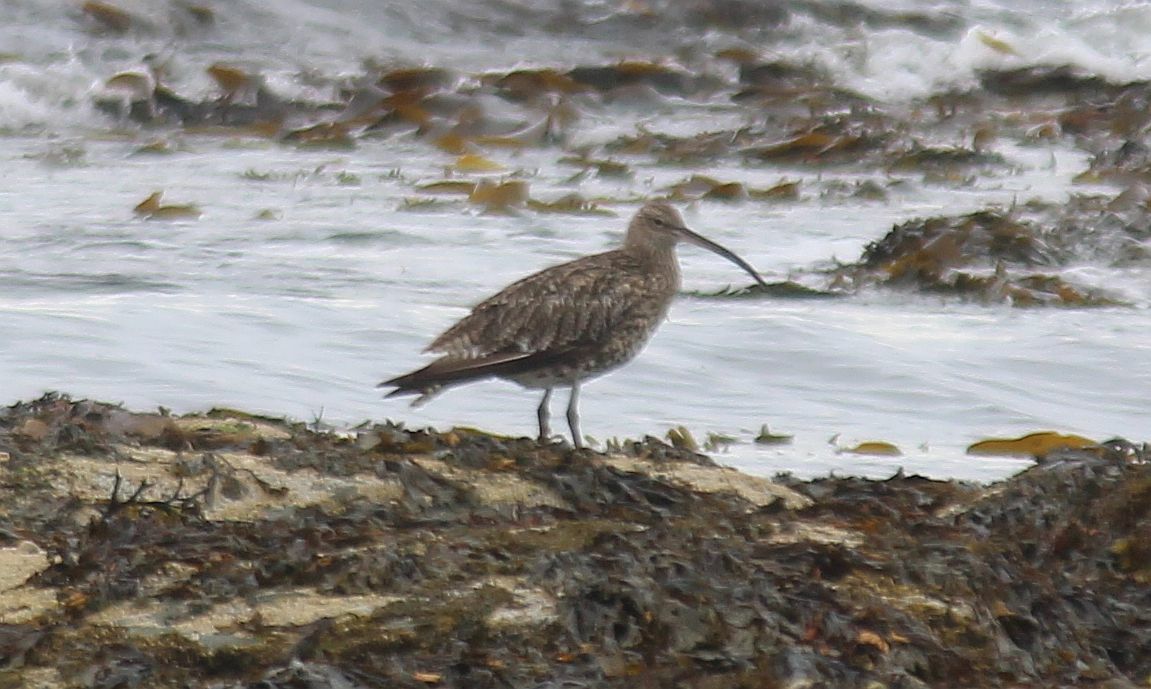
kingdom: Animalia
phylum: Chordata
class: Aves
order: Charadriiformes
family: Scolopacidae
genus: Numenius
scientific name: Numenius arquata
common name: Eurasian curlew
